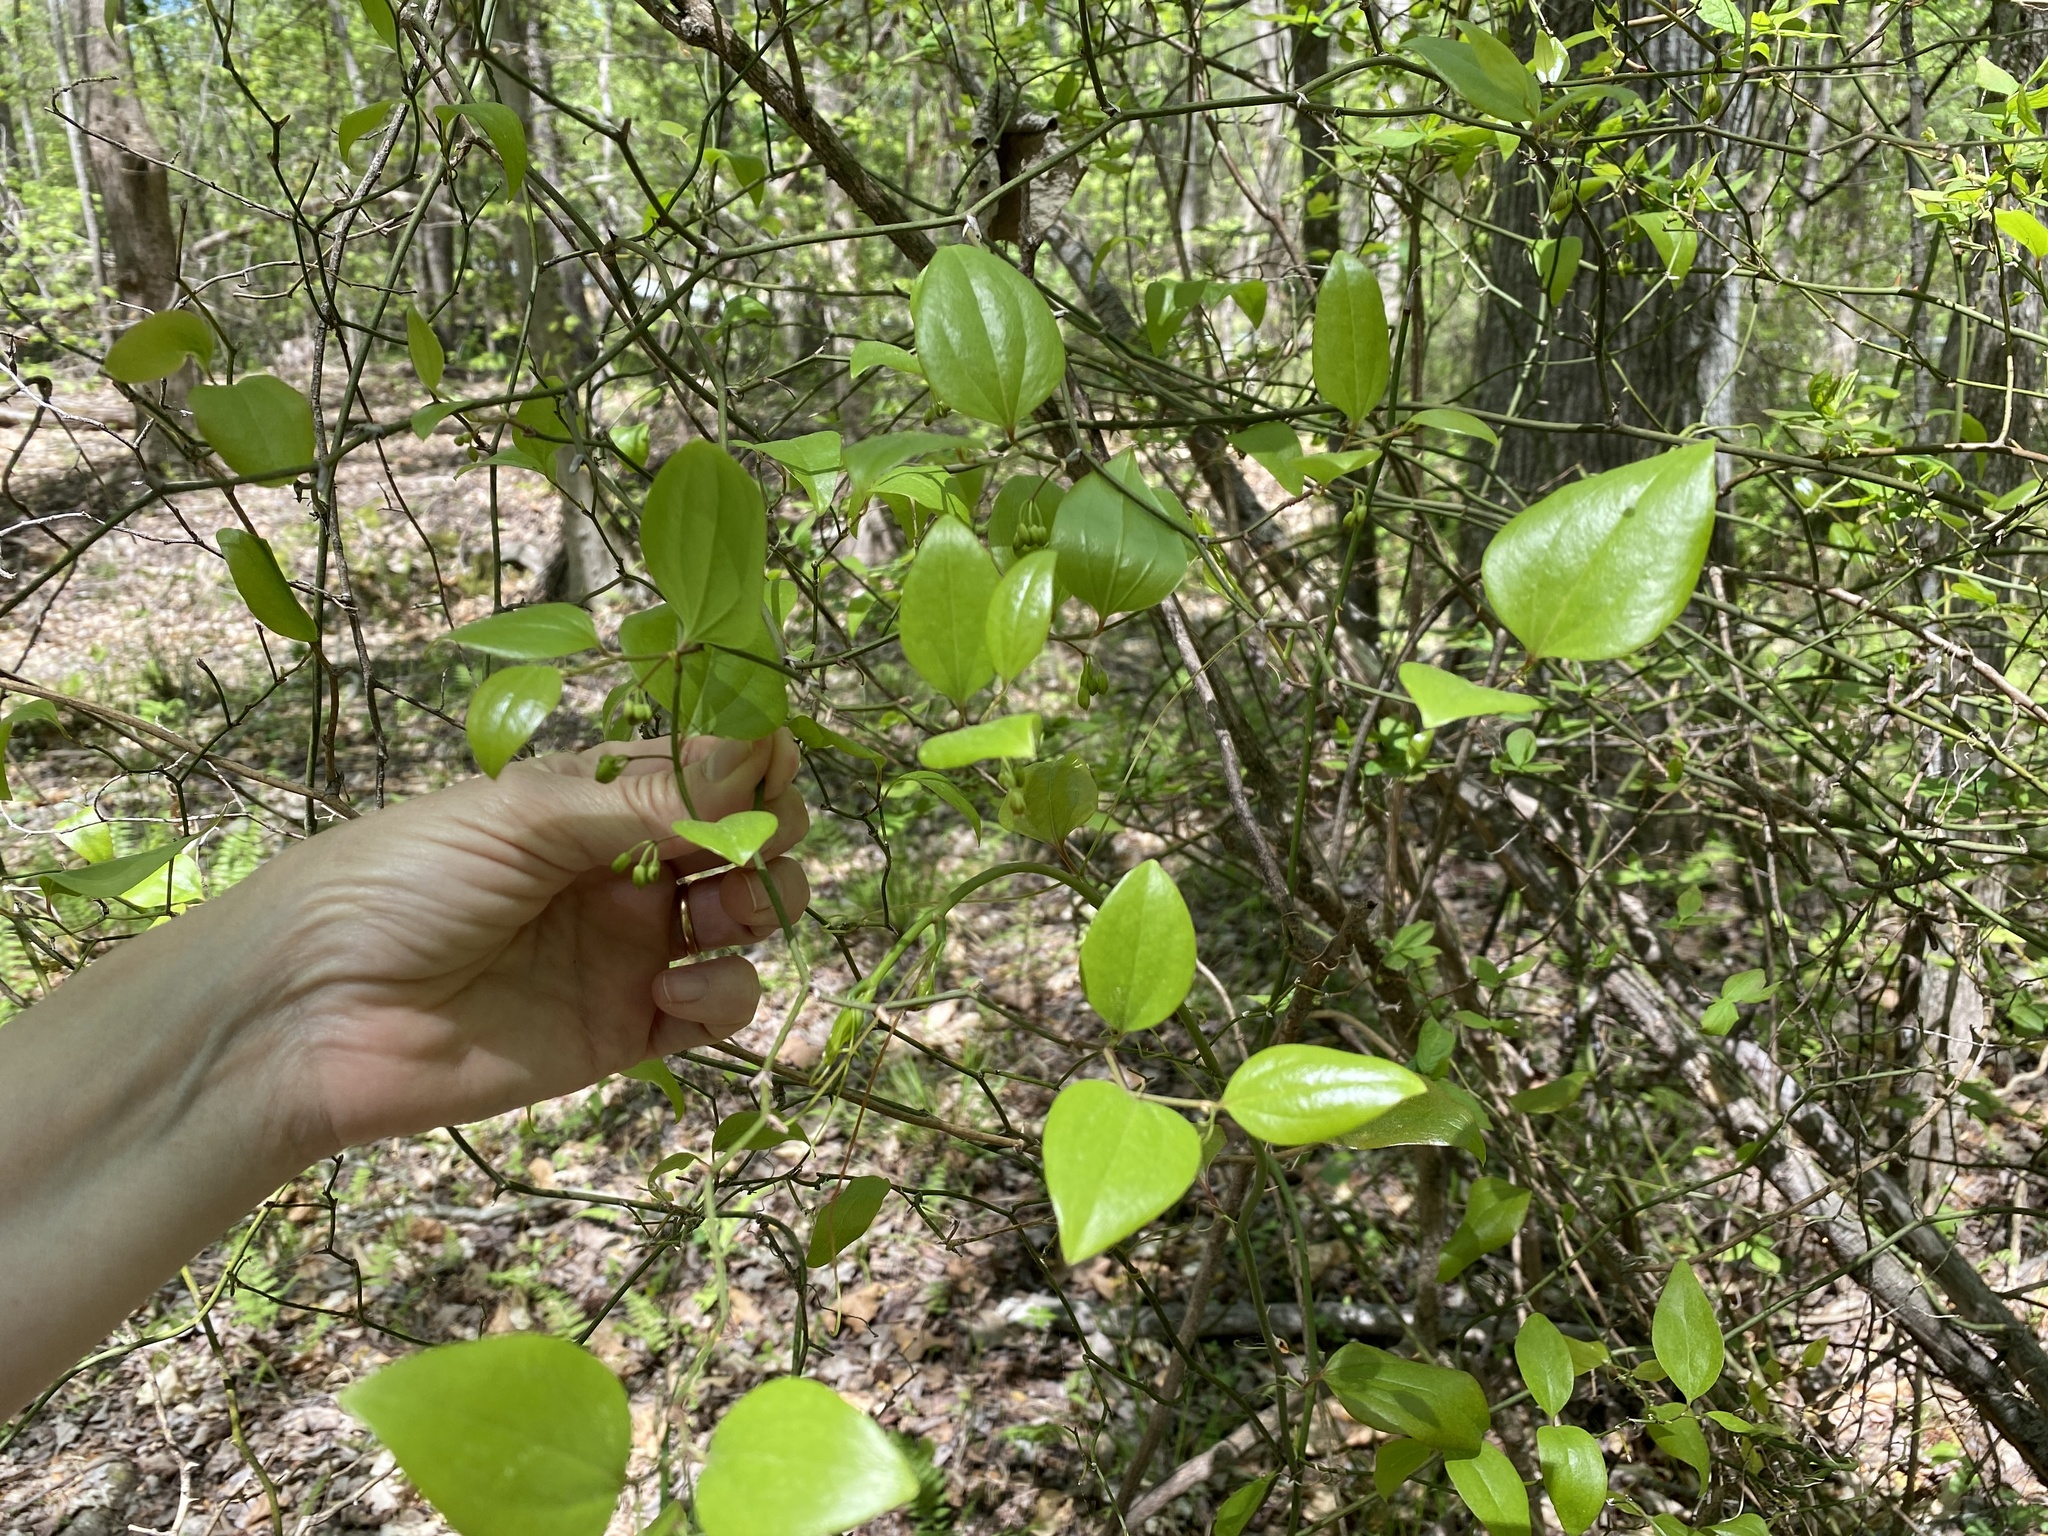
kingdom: Plantae
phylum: Tracheophyta
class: Liliopsida
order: Liliales
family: Smilacaceae
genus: Smilax
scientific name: Smilax rotundifolia
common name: Bullbriar
